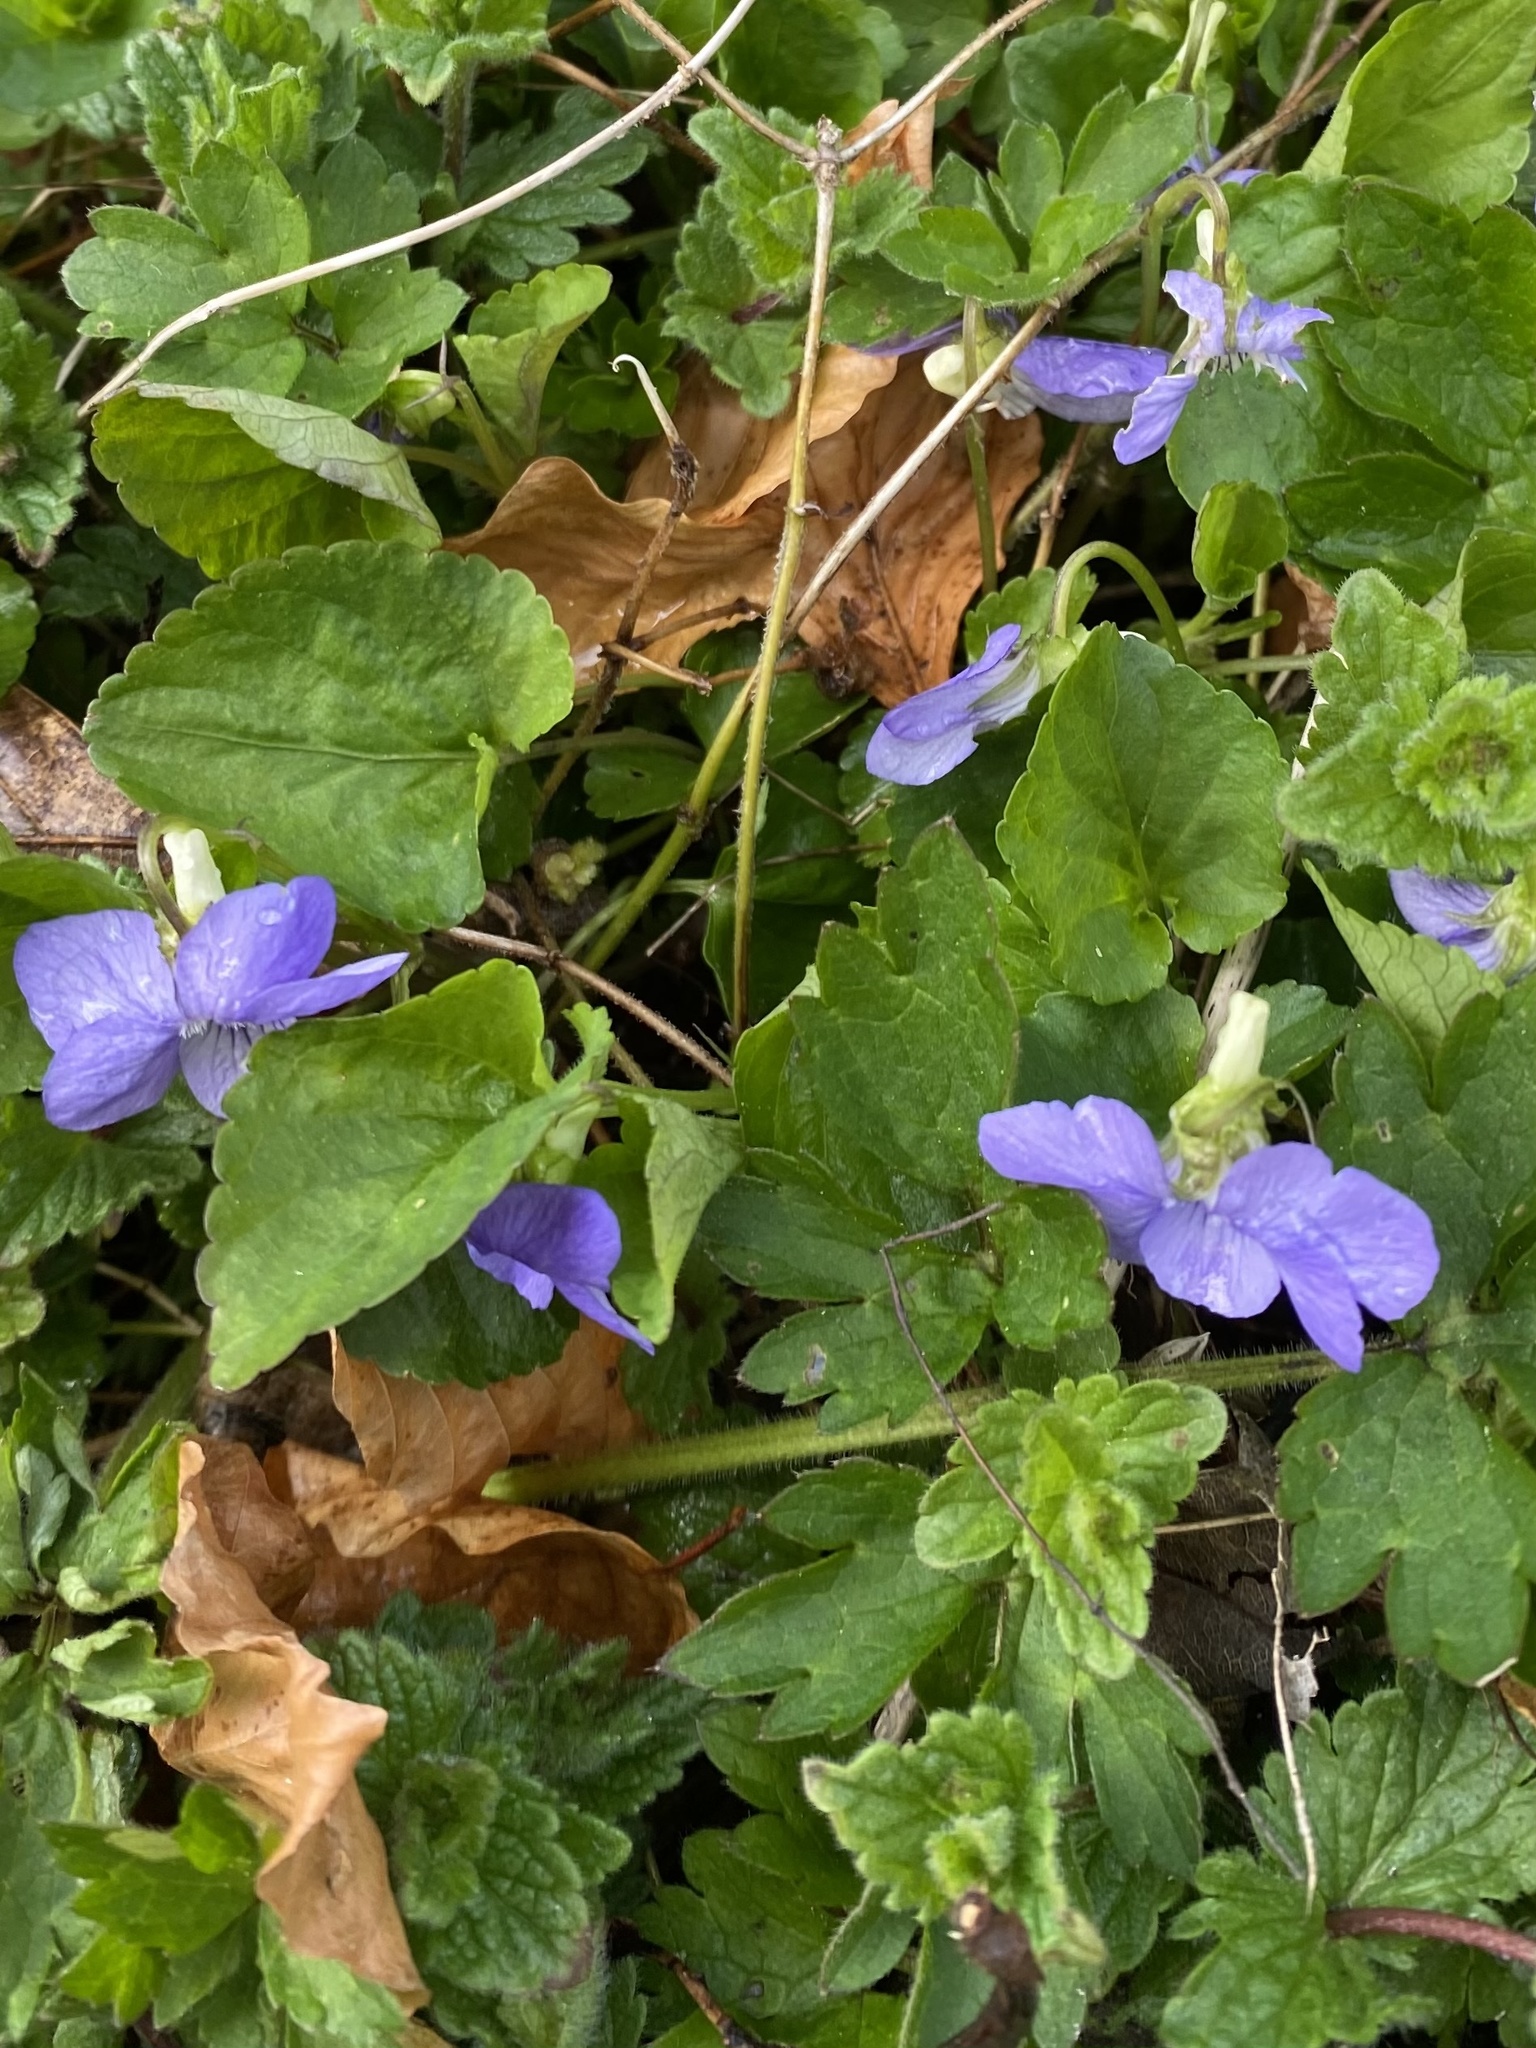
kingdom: Plantae
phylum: Tracheophyta
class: Magnoliopsida
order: Malpighiales
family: Violaceae
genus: Viola
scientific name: Viola riviniana
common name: Common dog-violet
